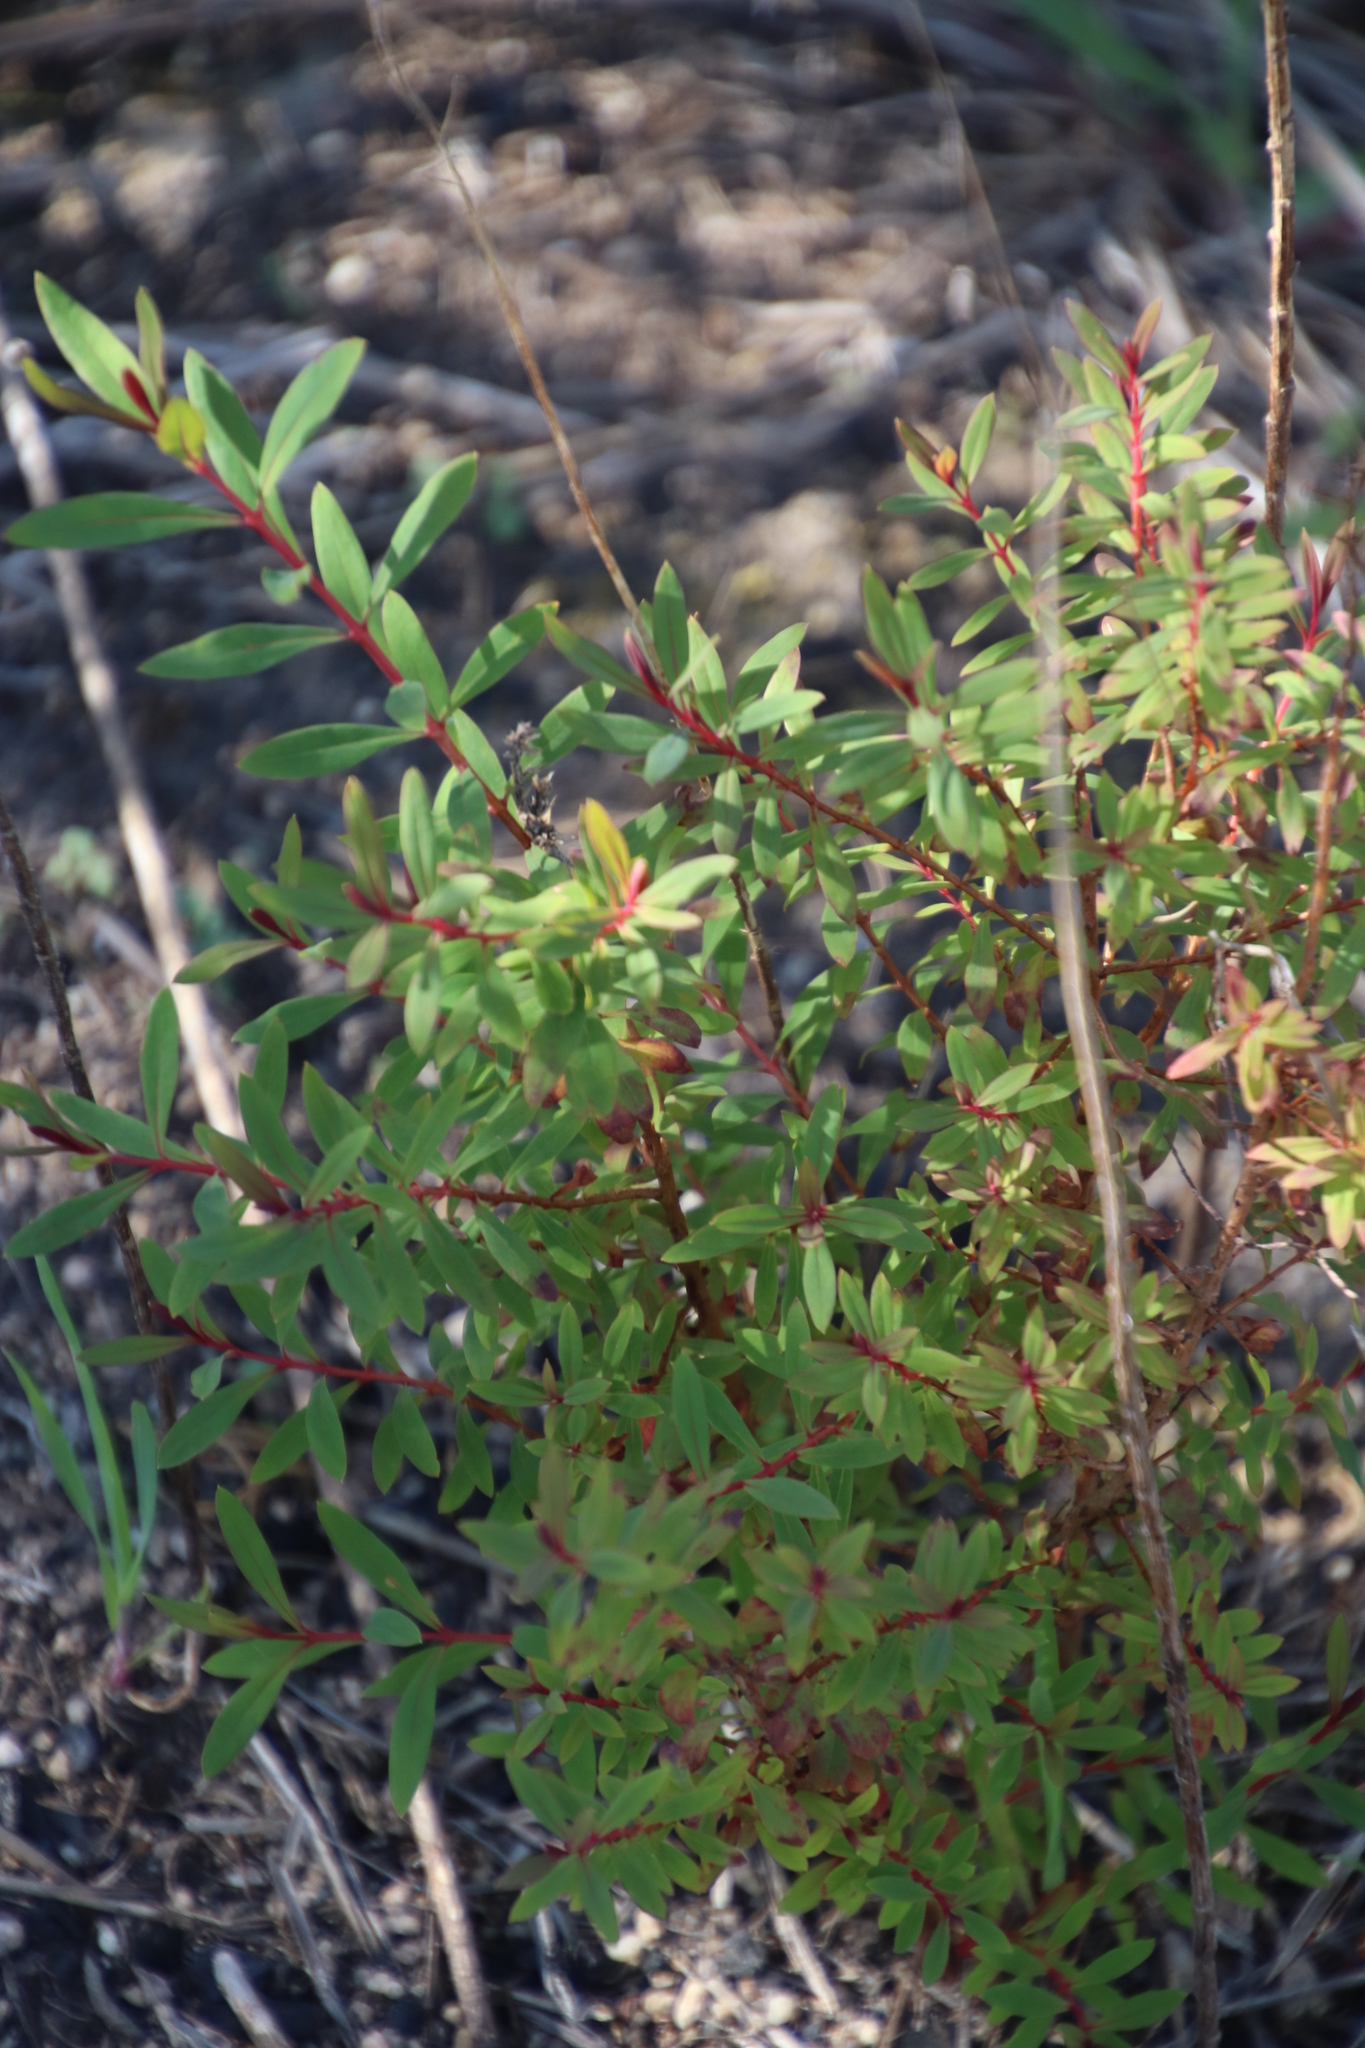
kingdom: Plantae
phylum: Tracheophyta
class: Magnoliopsida
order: Malpighiales
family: Hypericaceae
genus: Hypericum
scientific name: Hypericum canariense
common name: Canary island st. johnswort
